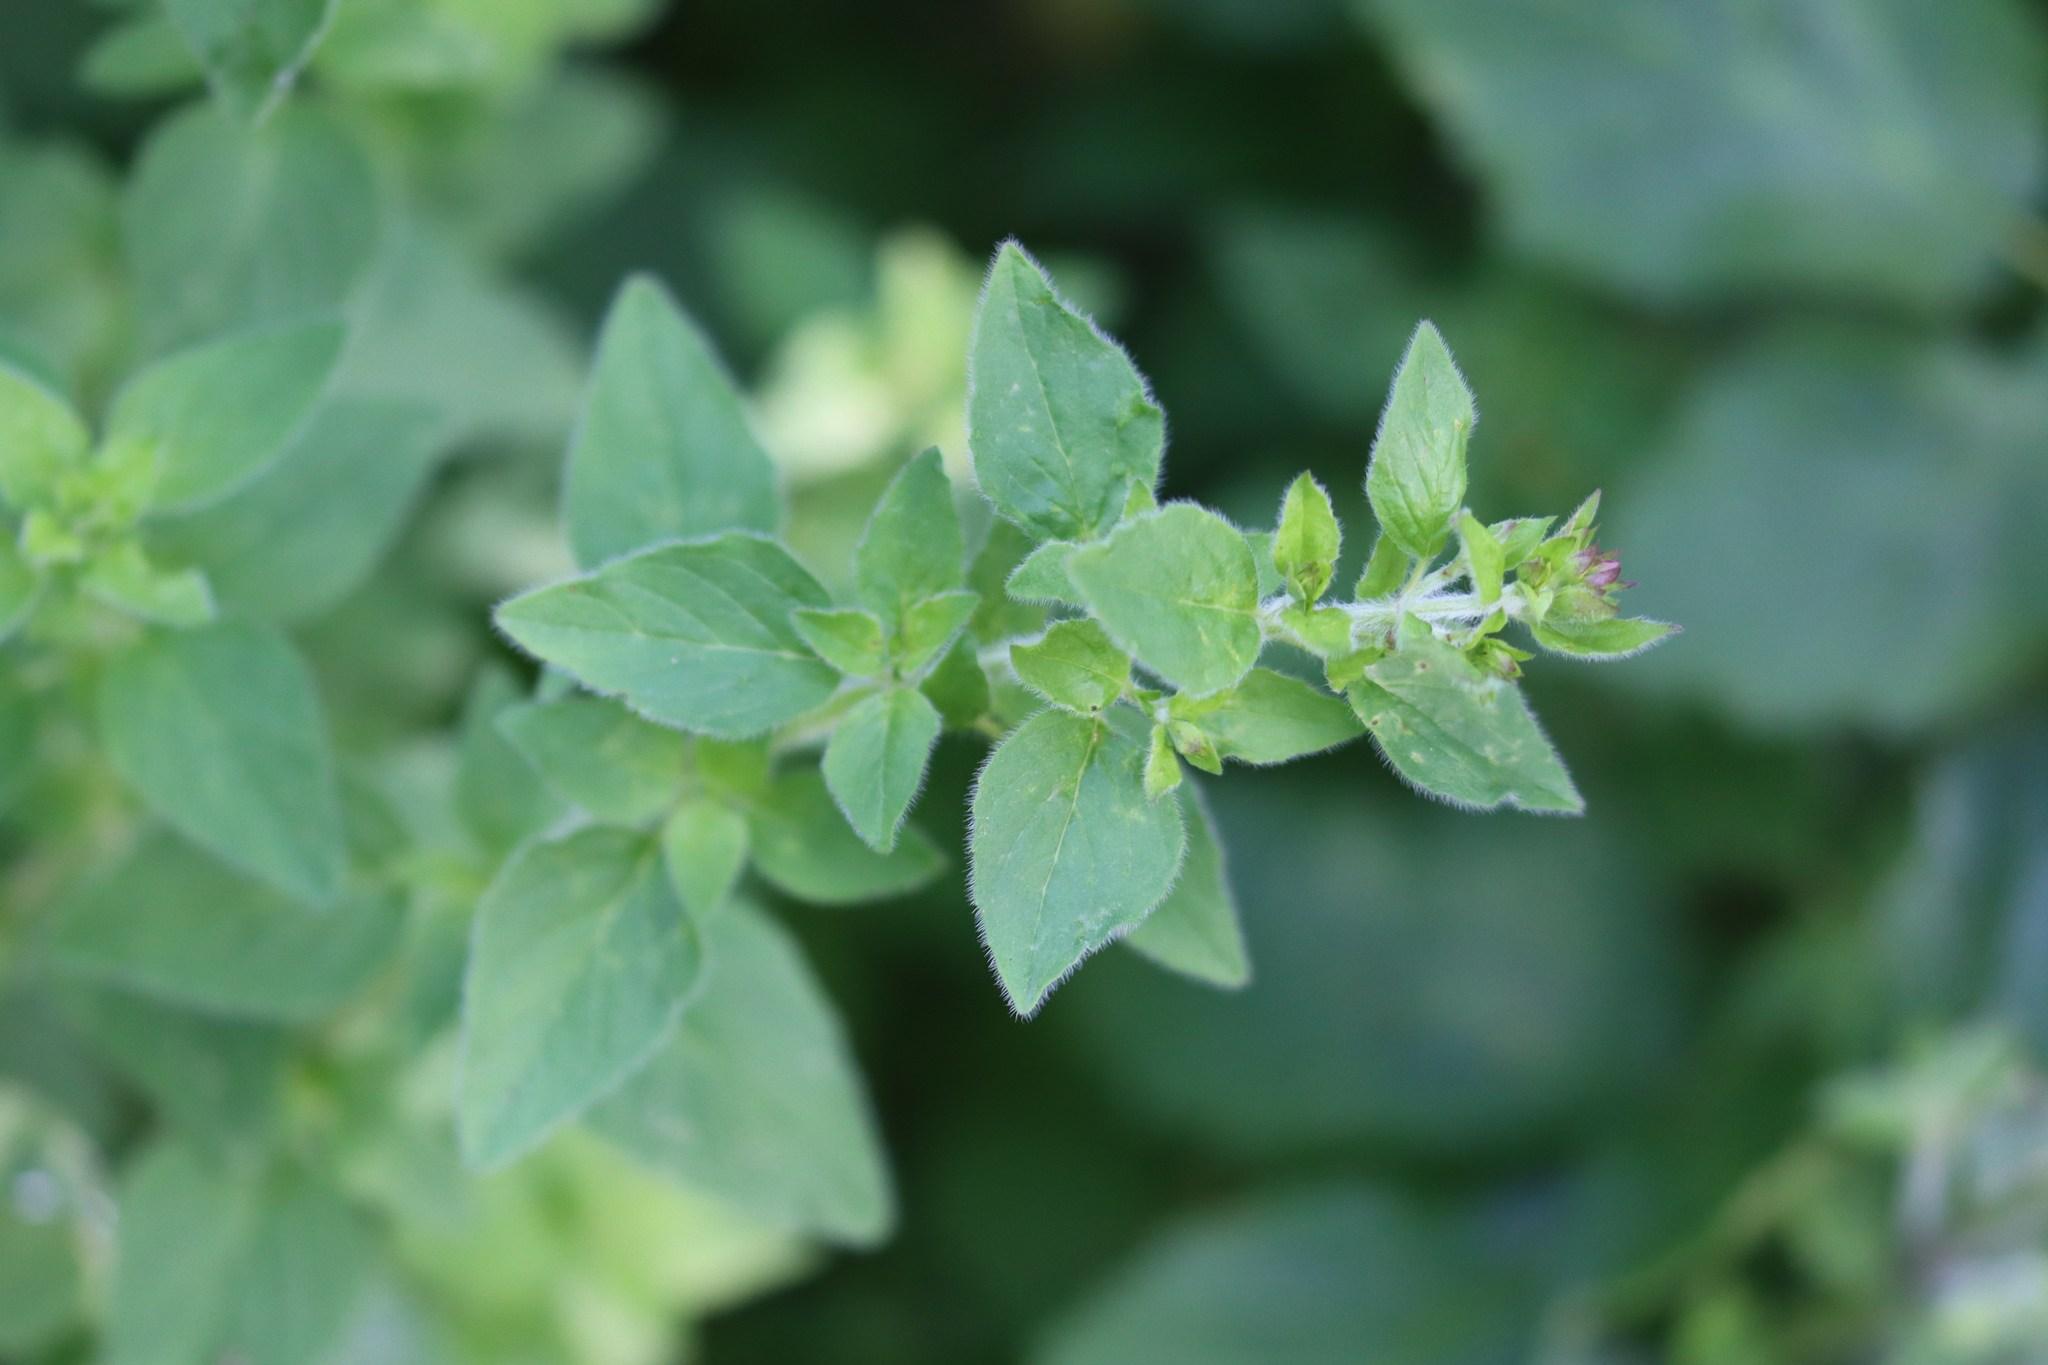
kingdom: Plantae
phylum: Tracheophyta
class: Magnoliopsida
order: Lamiales
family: Lamiaceae
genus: Origanum
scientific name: Origanum vulgare
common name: Wild marjoram
